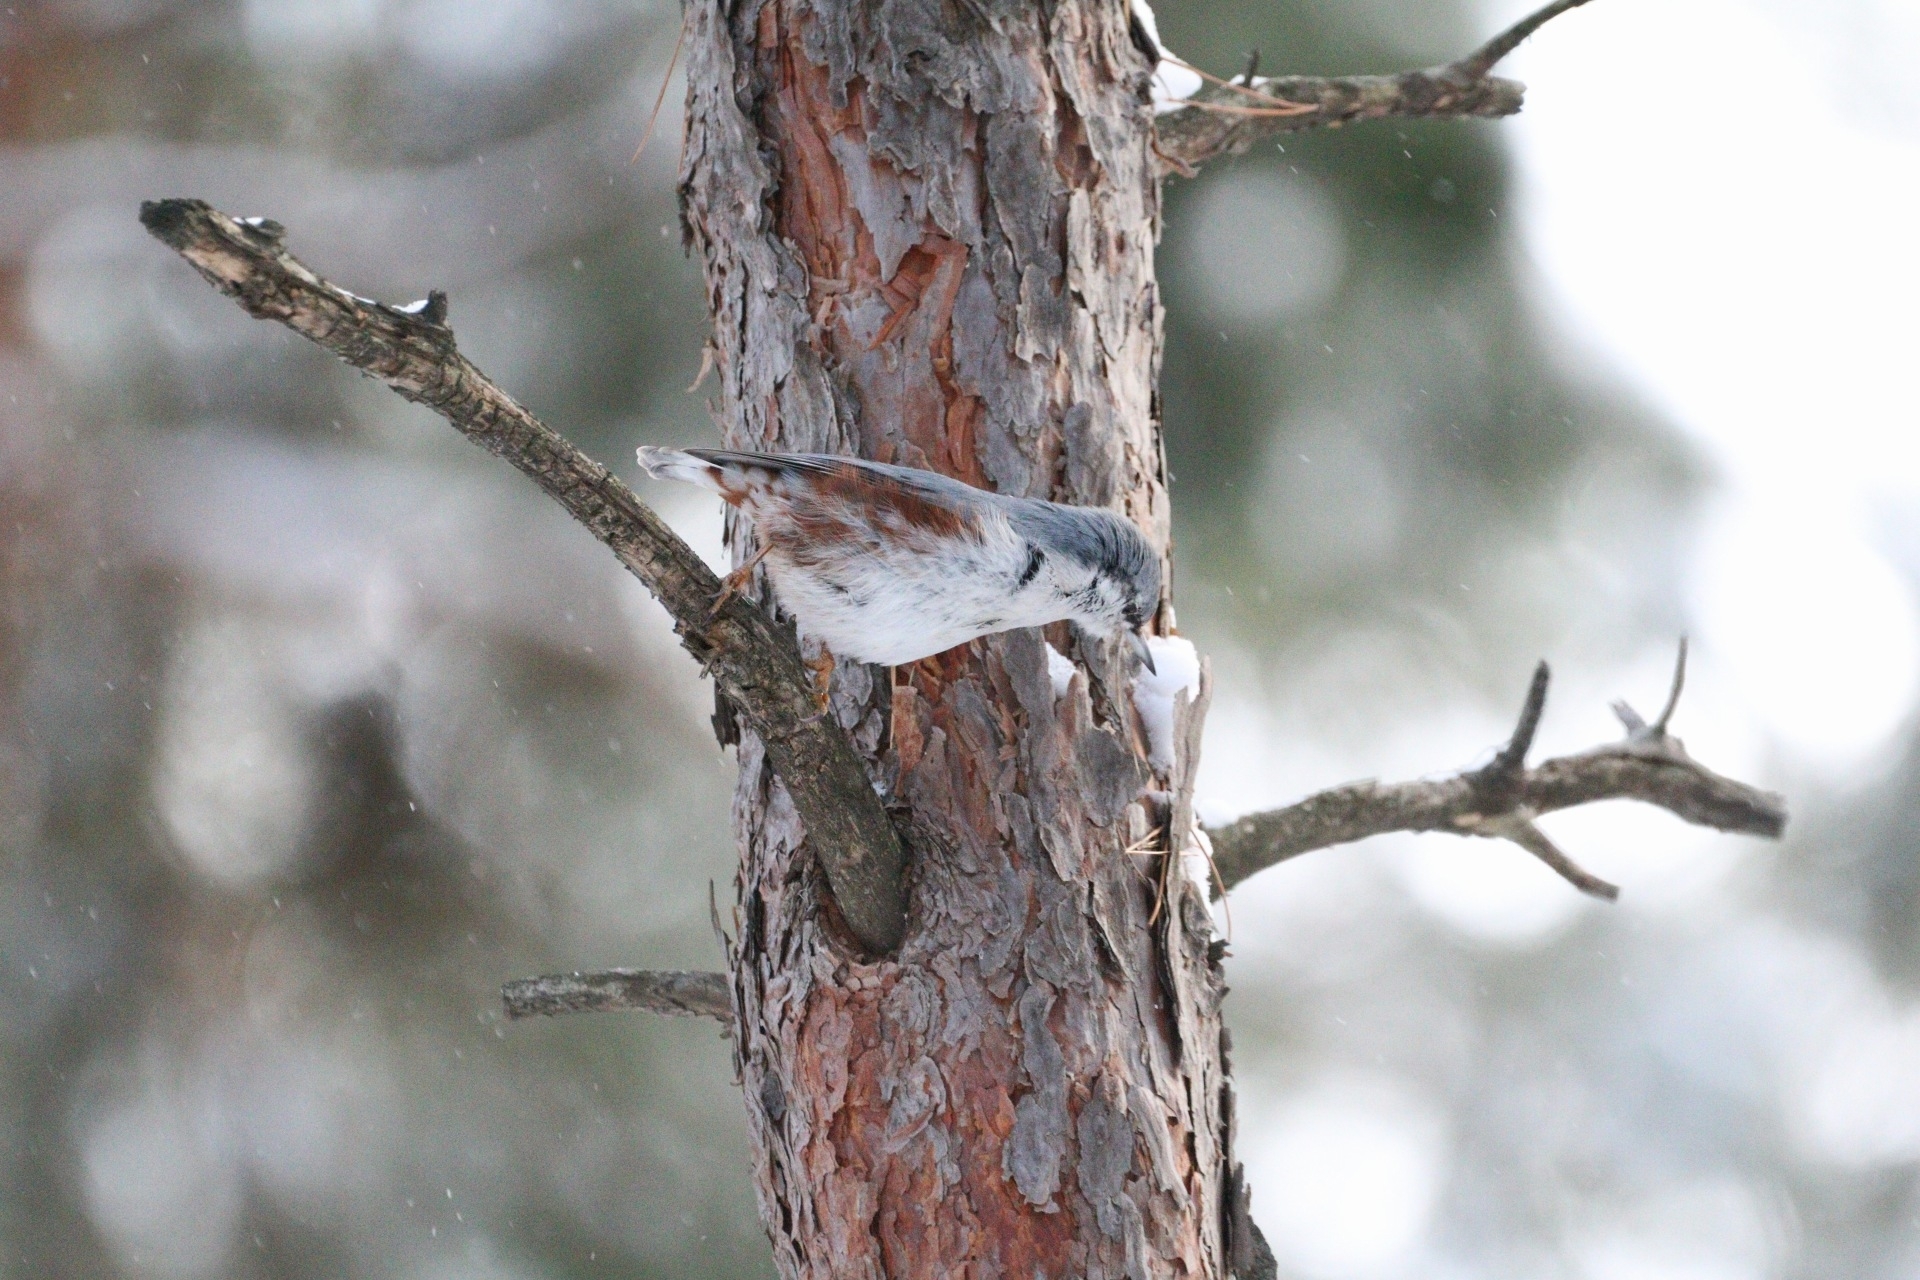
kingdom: Animalia
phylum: Chordata
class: Aves
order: Passeriformes
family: Sittidae
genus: Sitta
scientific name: Sitta europaea
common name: Eurasian nuthatch
